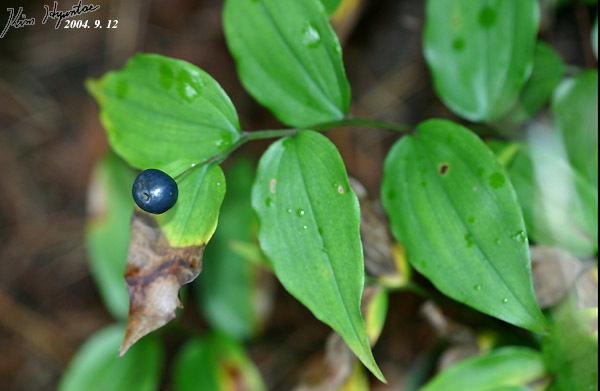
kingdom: Plantae
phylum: Tracheophyta
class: Liliopsida
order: Liliales
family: Colchicaceae
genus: Disporum
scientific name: Disporum smilacinum
